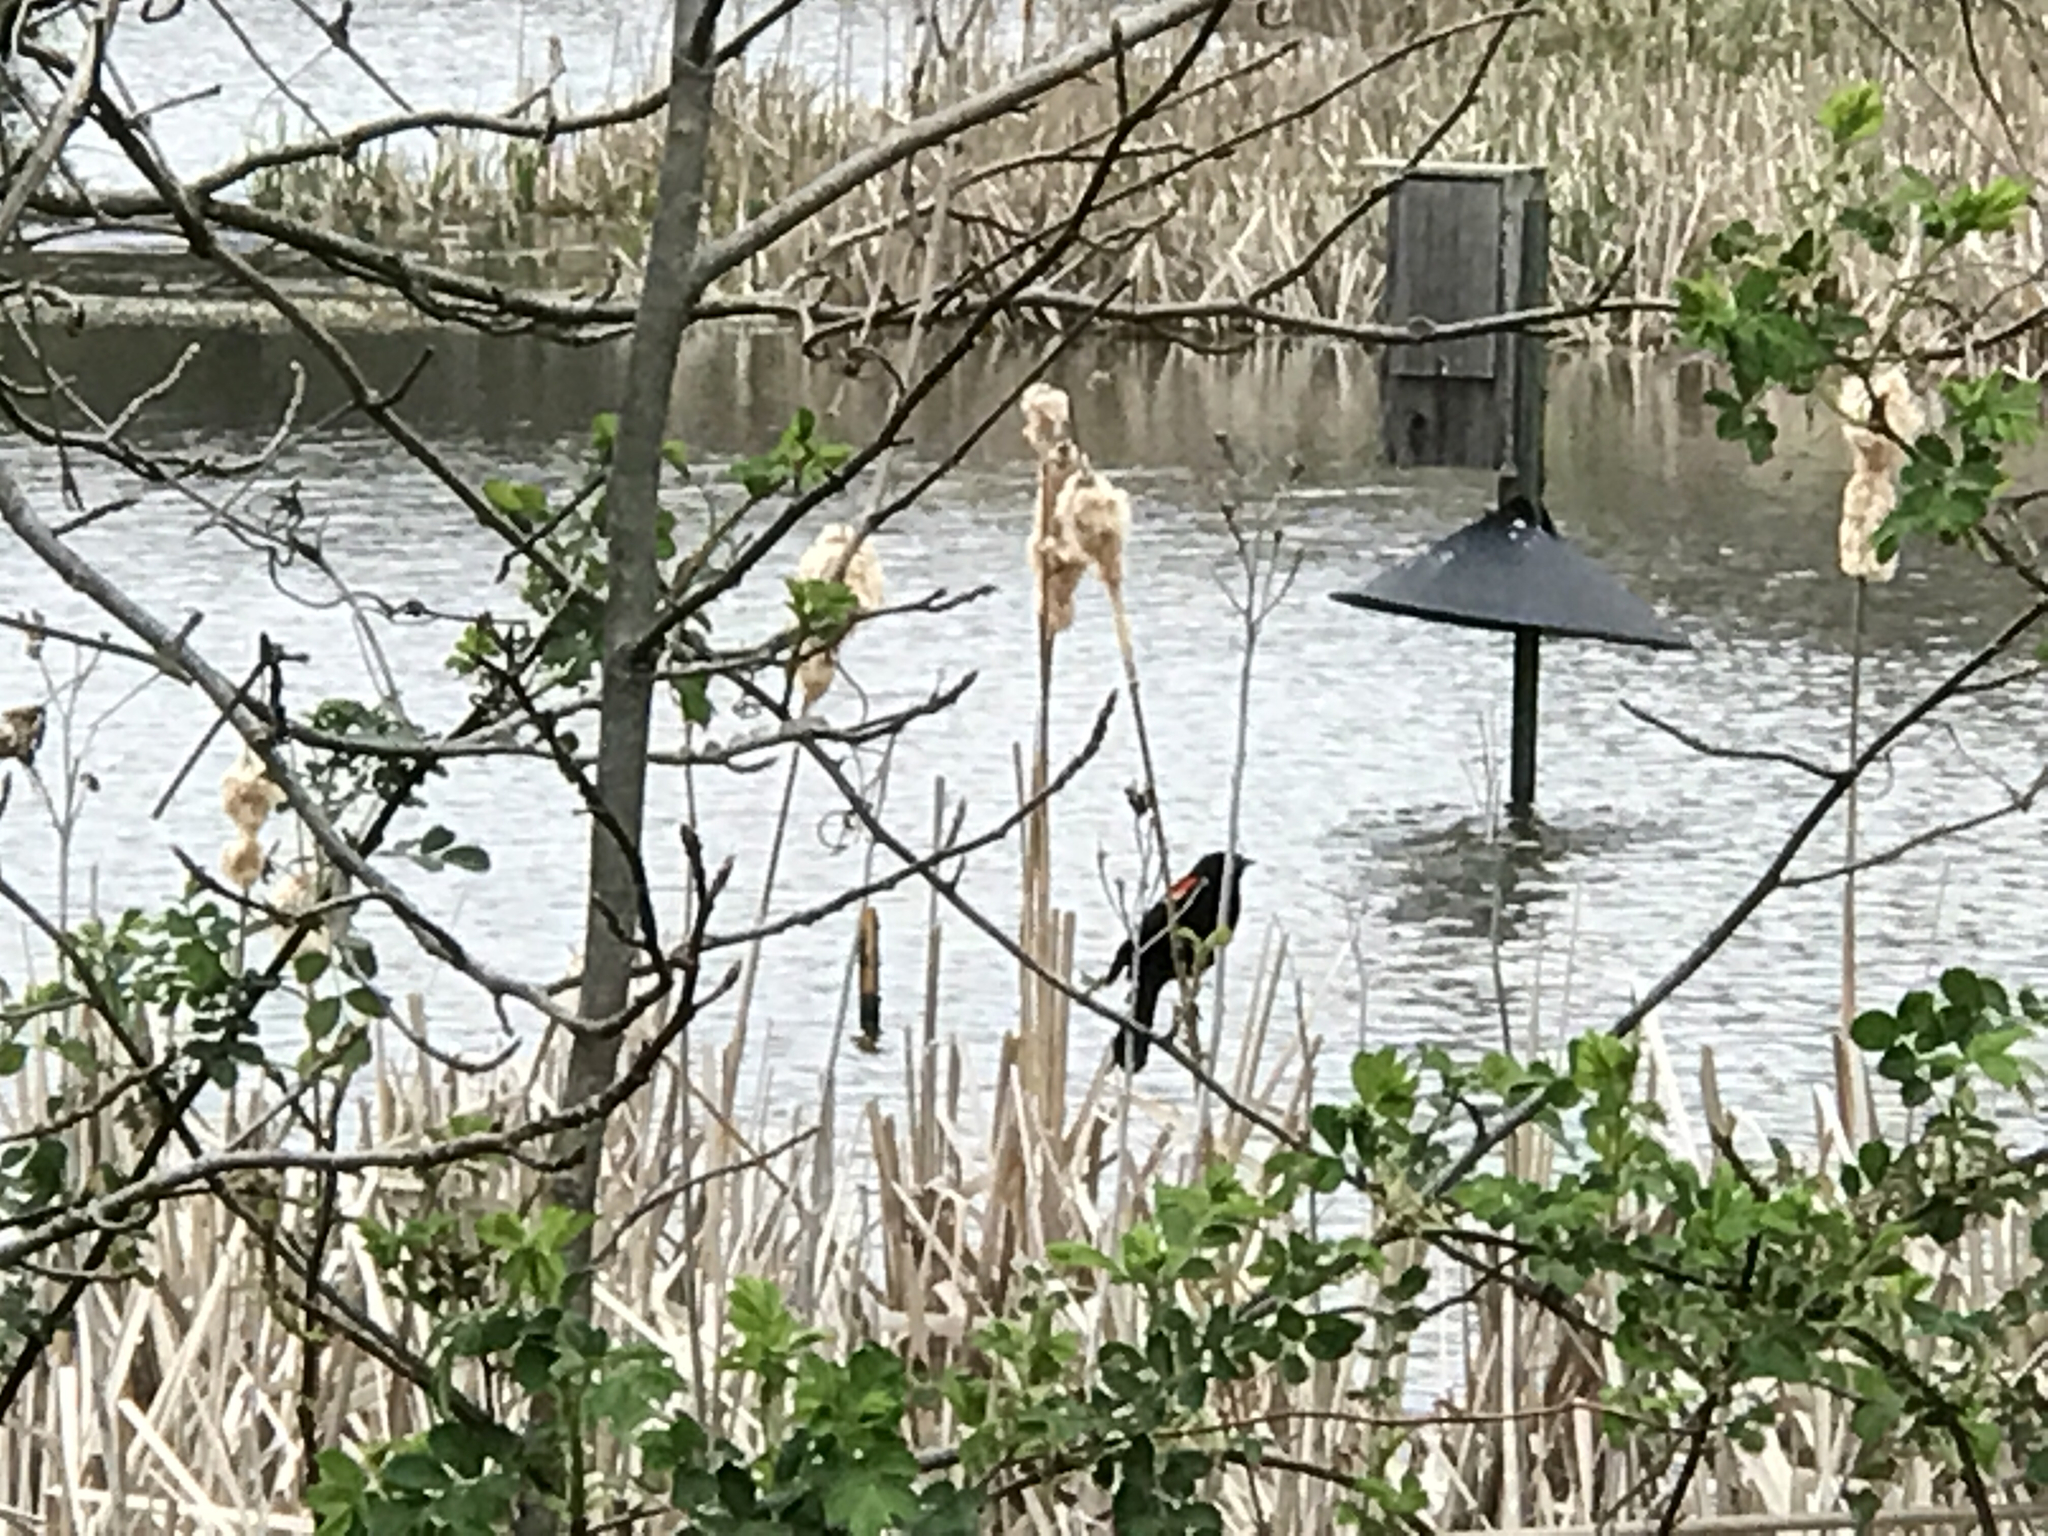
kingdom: Animalia
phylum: Chordata
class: Aves
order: Passeriformes
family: Icteridae
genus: Agelaius
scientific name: Agelaius phoeniceus
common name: Red-winged blackbird
